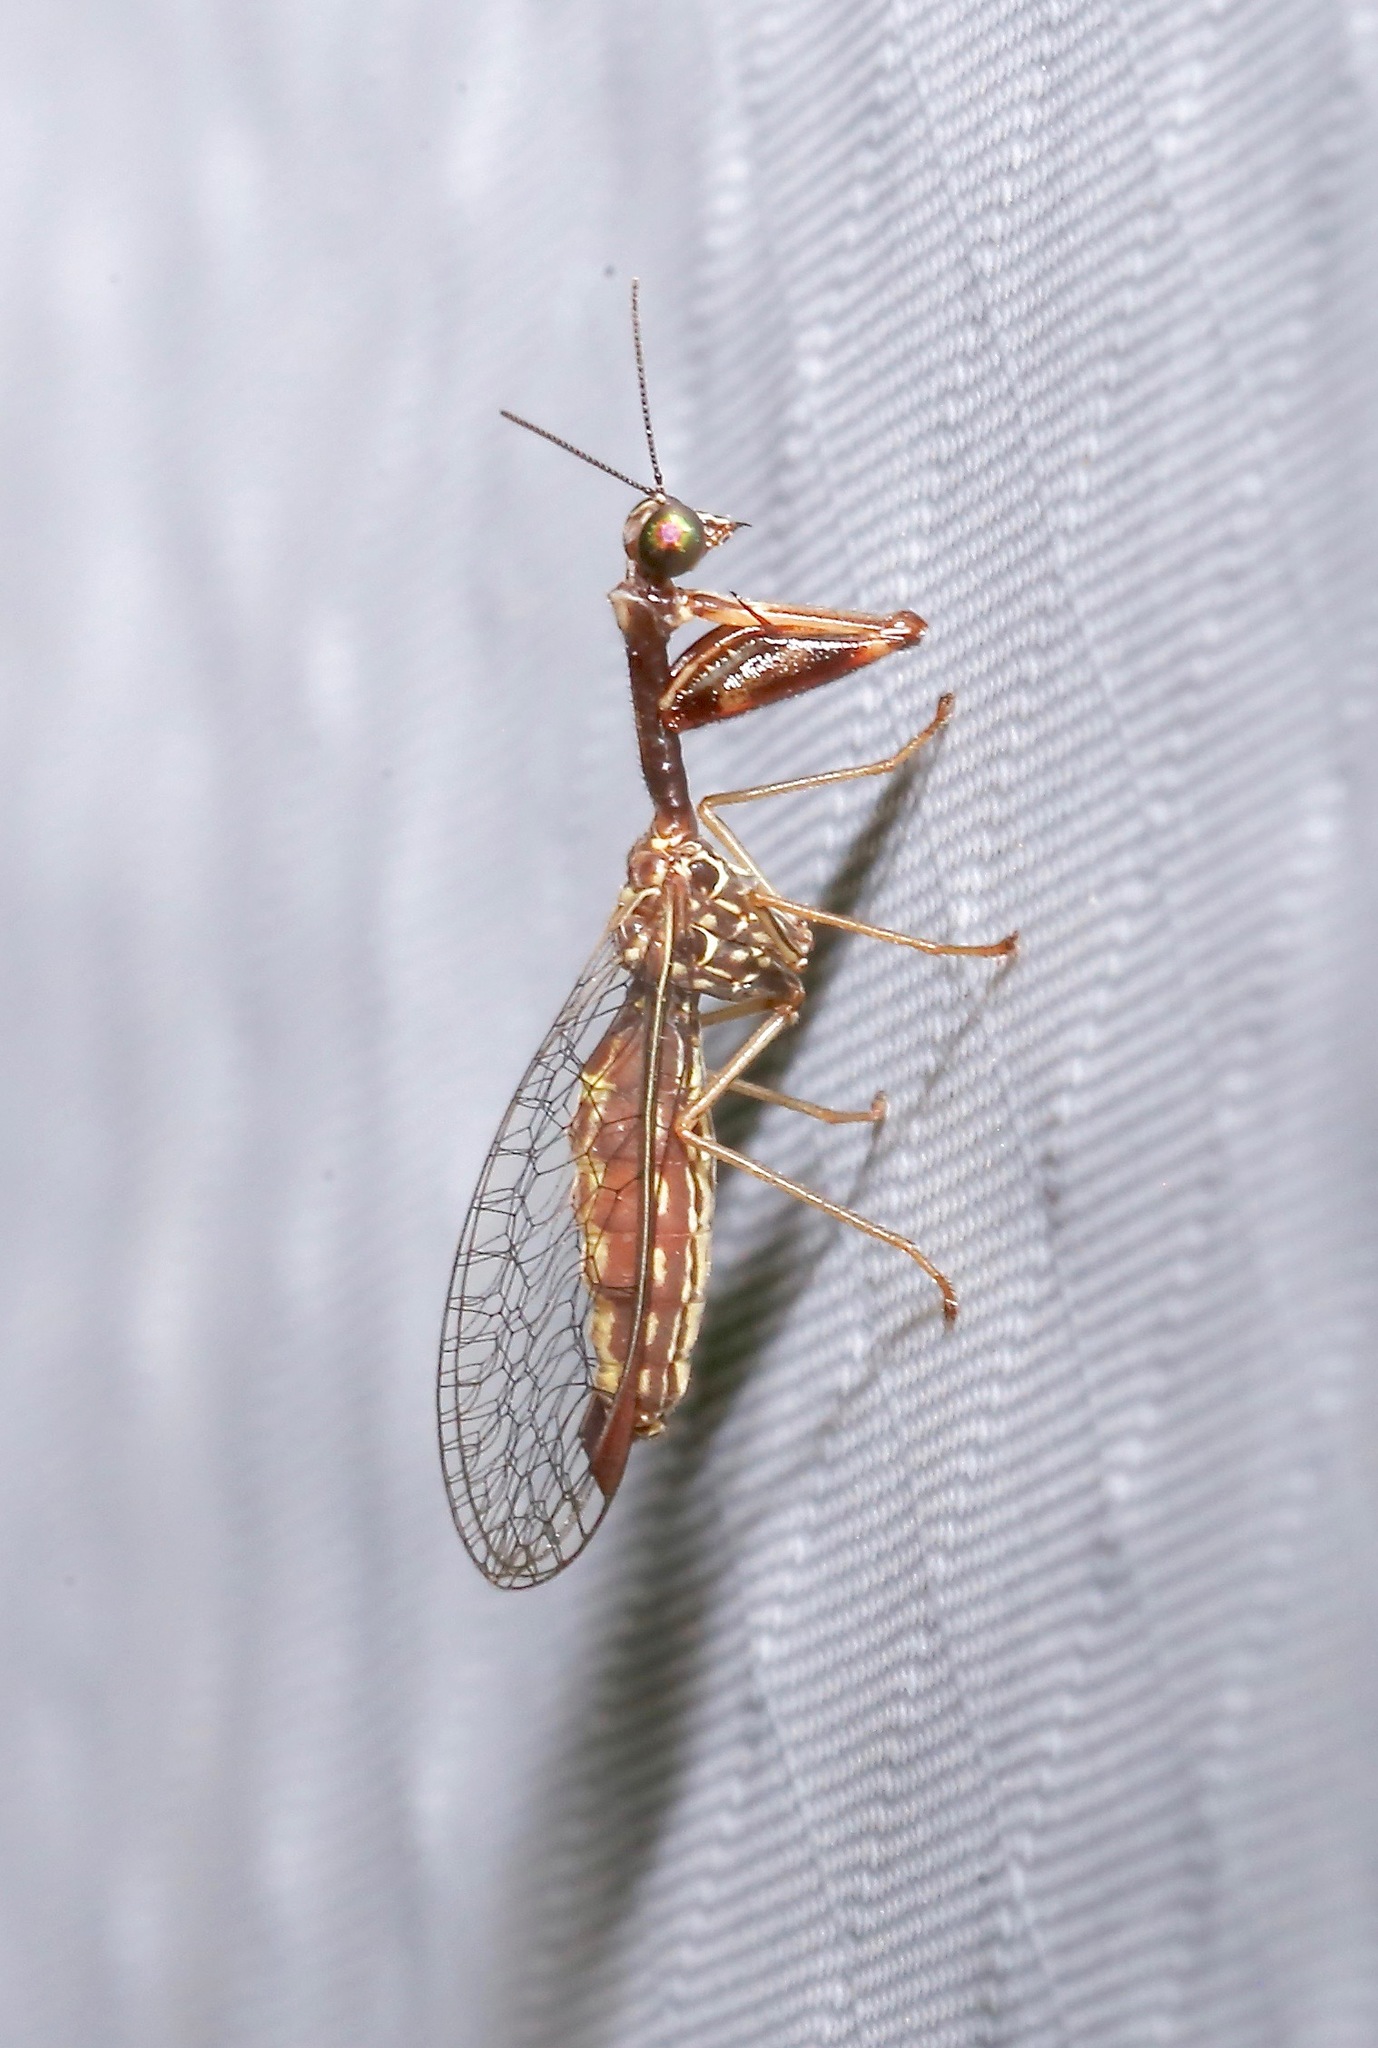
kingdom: Animalia
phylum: Arthropoda
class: Insecta
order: Neuroptera
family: Mantispidae
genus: Leptomantispa
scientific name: Leptomantispa pulchella
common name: Stevens's mantidfly
